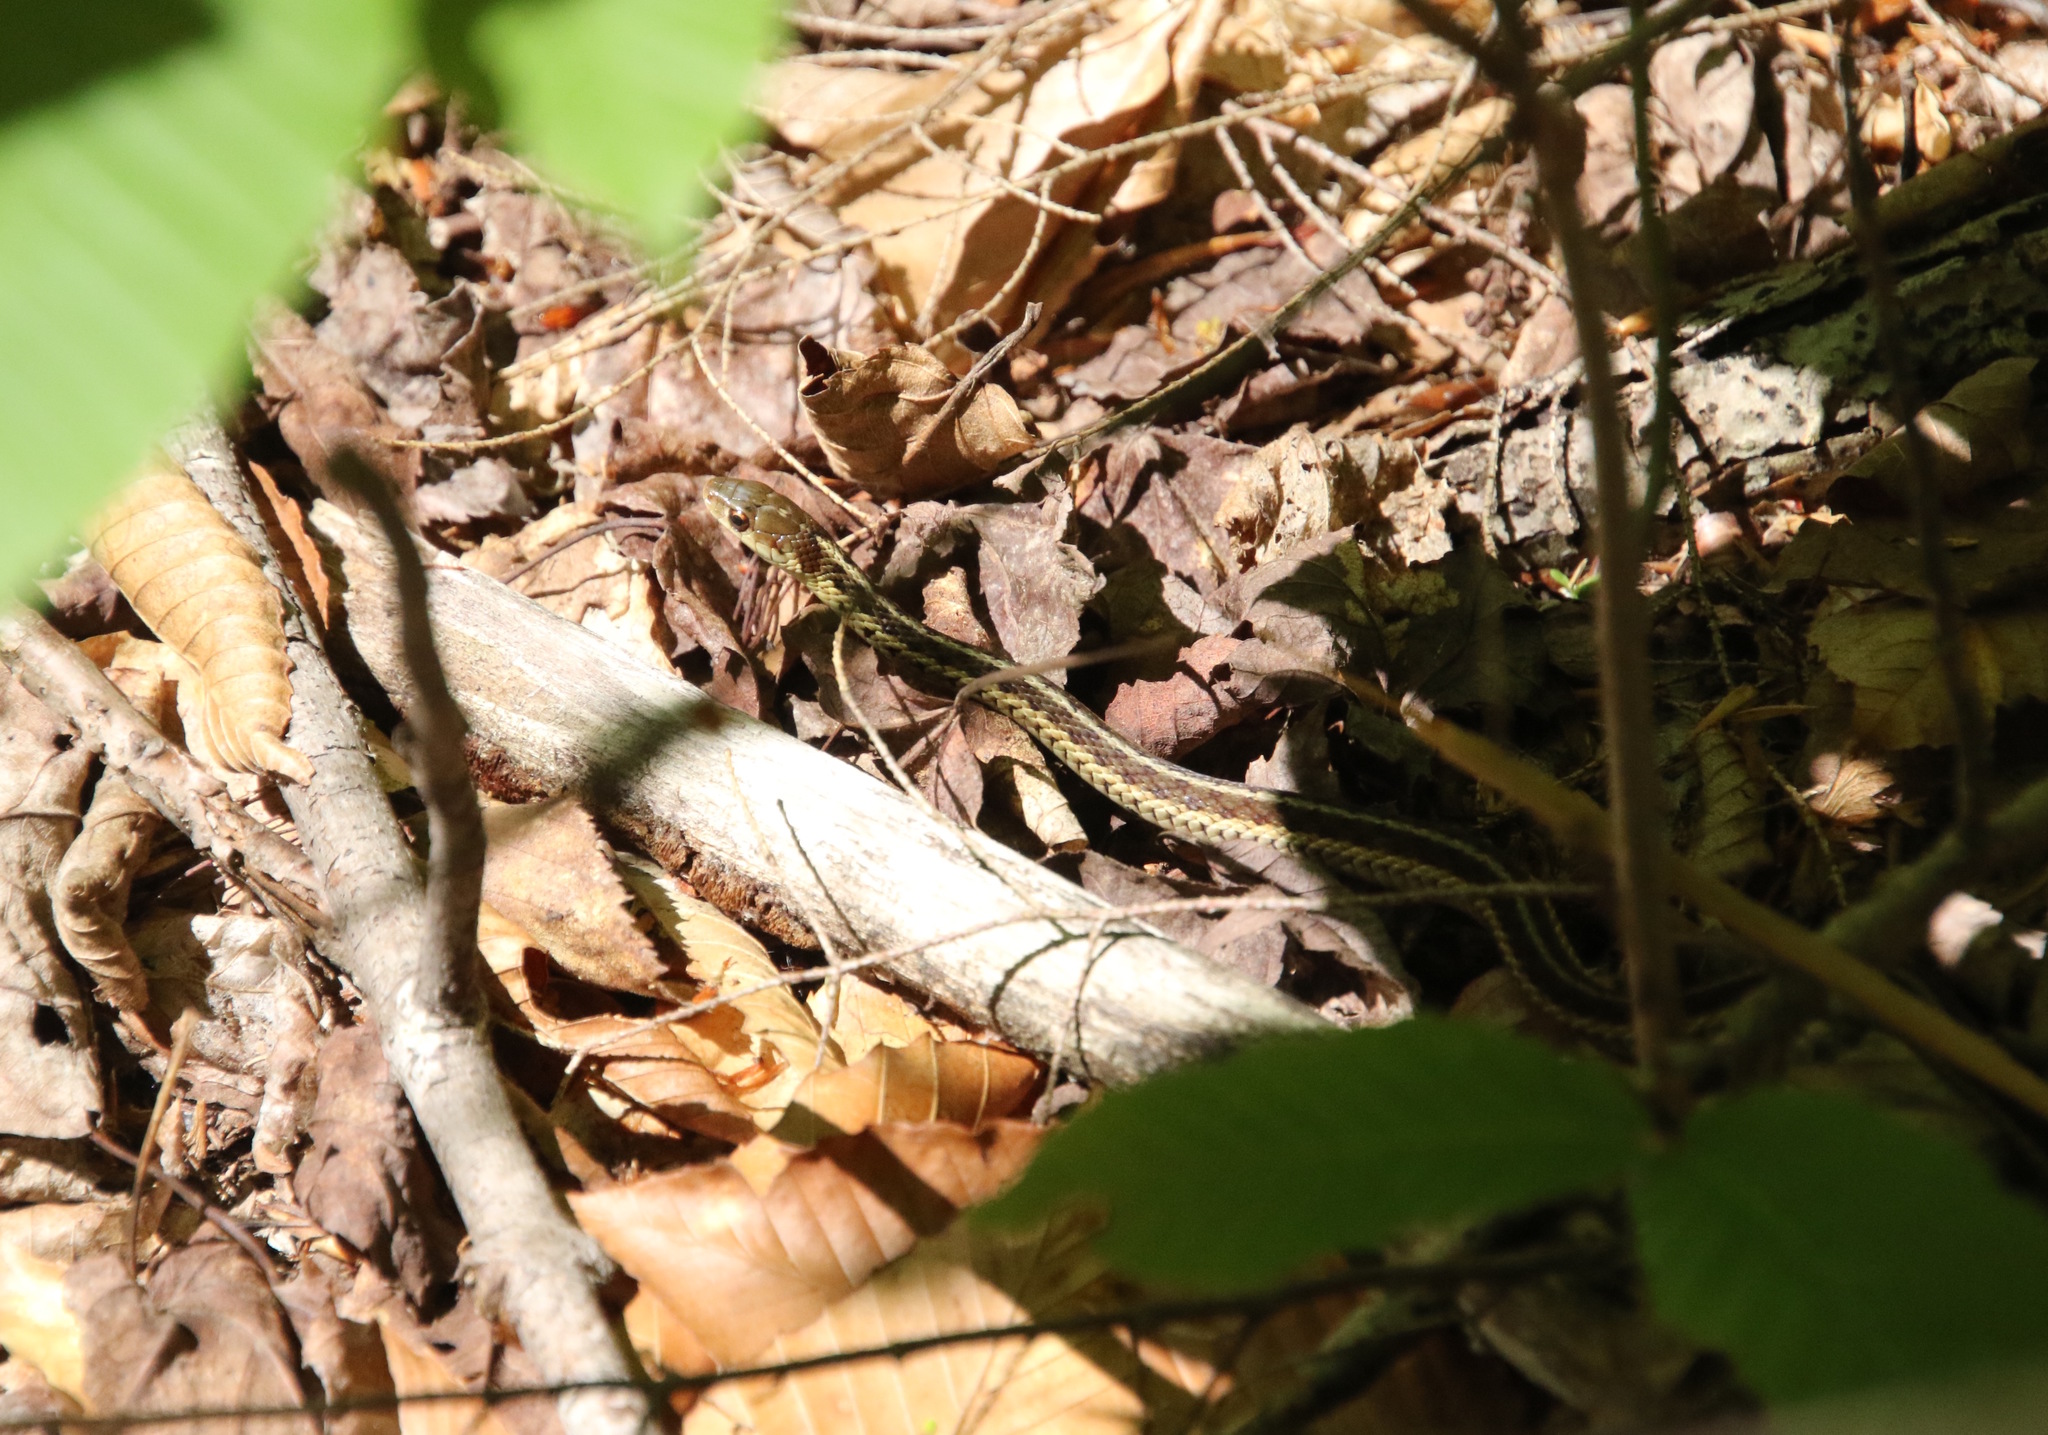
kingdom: Animalia
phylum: Chordata
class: Squamata
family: Colubridae
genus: Thamnophis
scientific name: Thamnophis sirtalis
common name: Common garter snake
